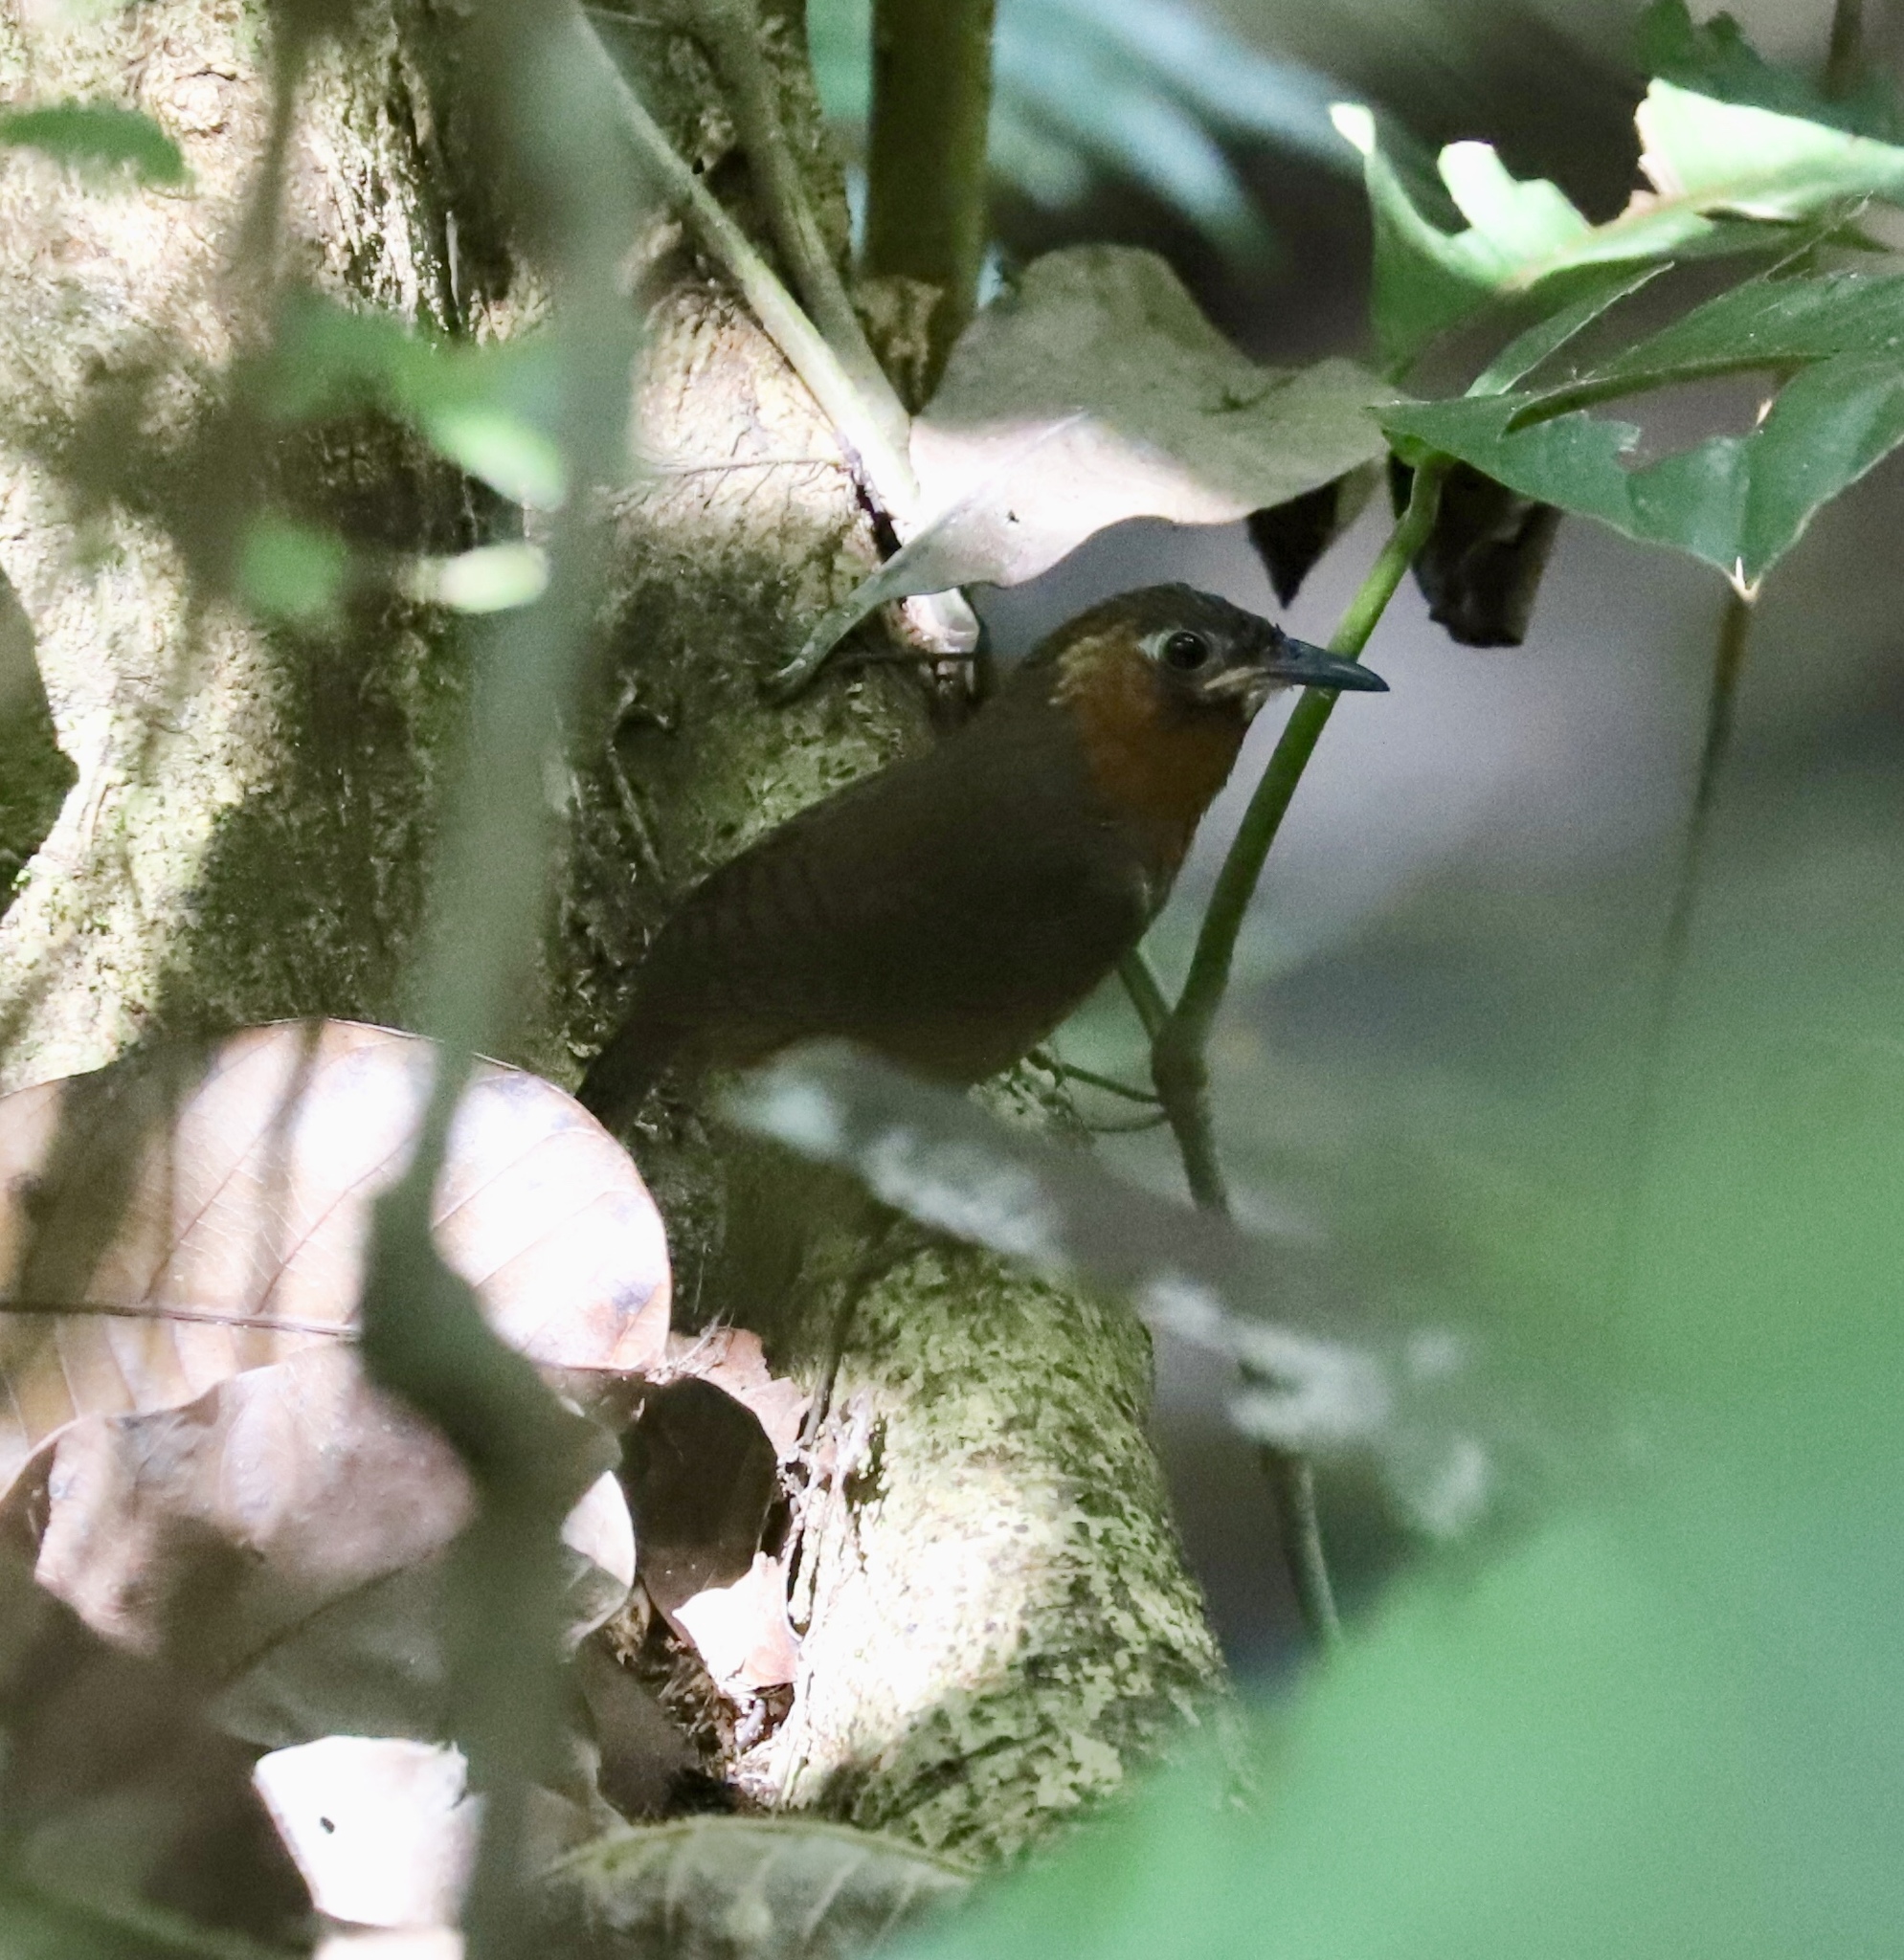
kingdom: Animalia
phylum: Chordata
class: Aves
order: Passeriformes
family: Troglodytidae
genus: Cyphorhinus
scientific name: Cyphorhinus phaeocephalus
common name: Song wren
